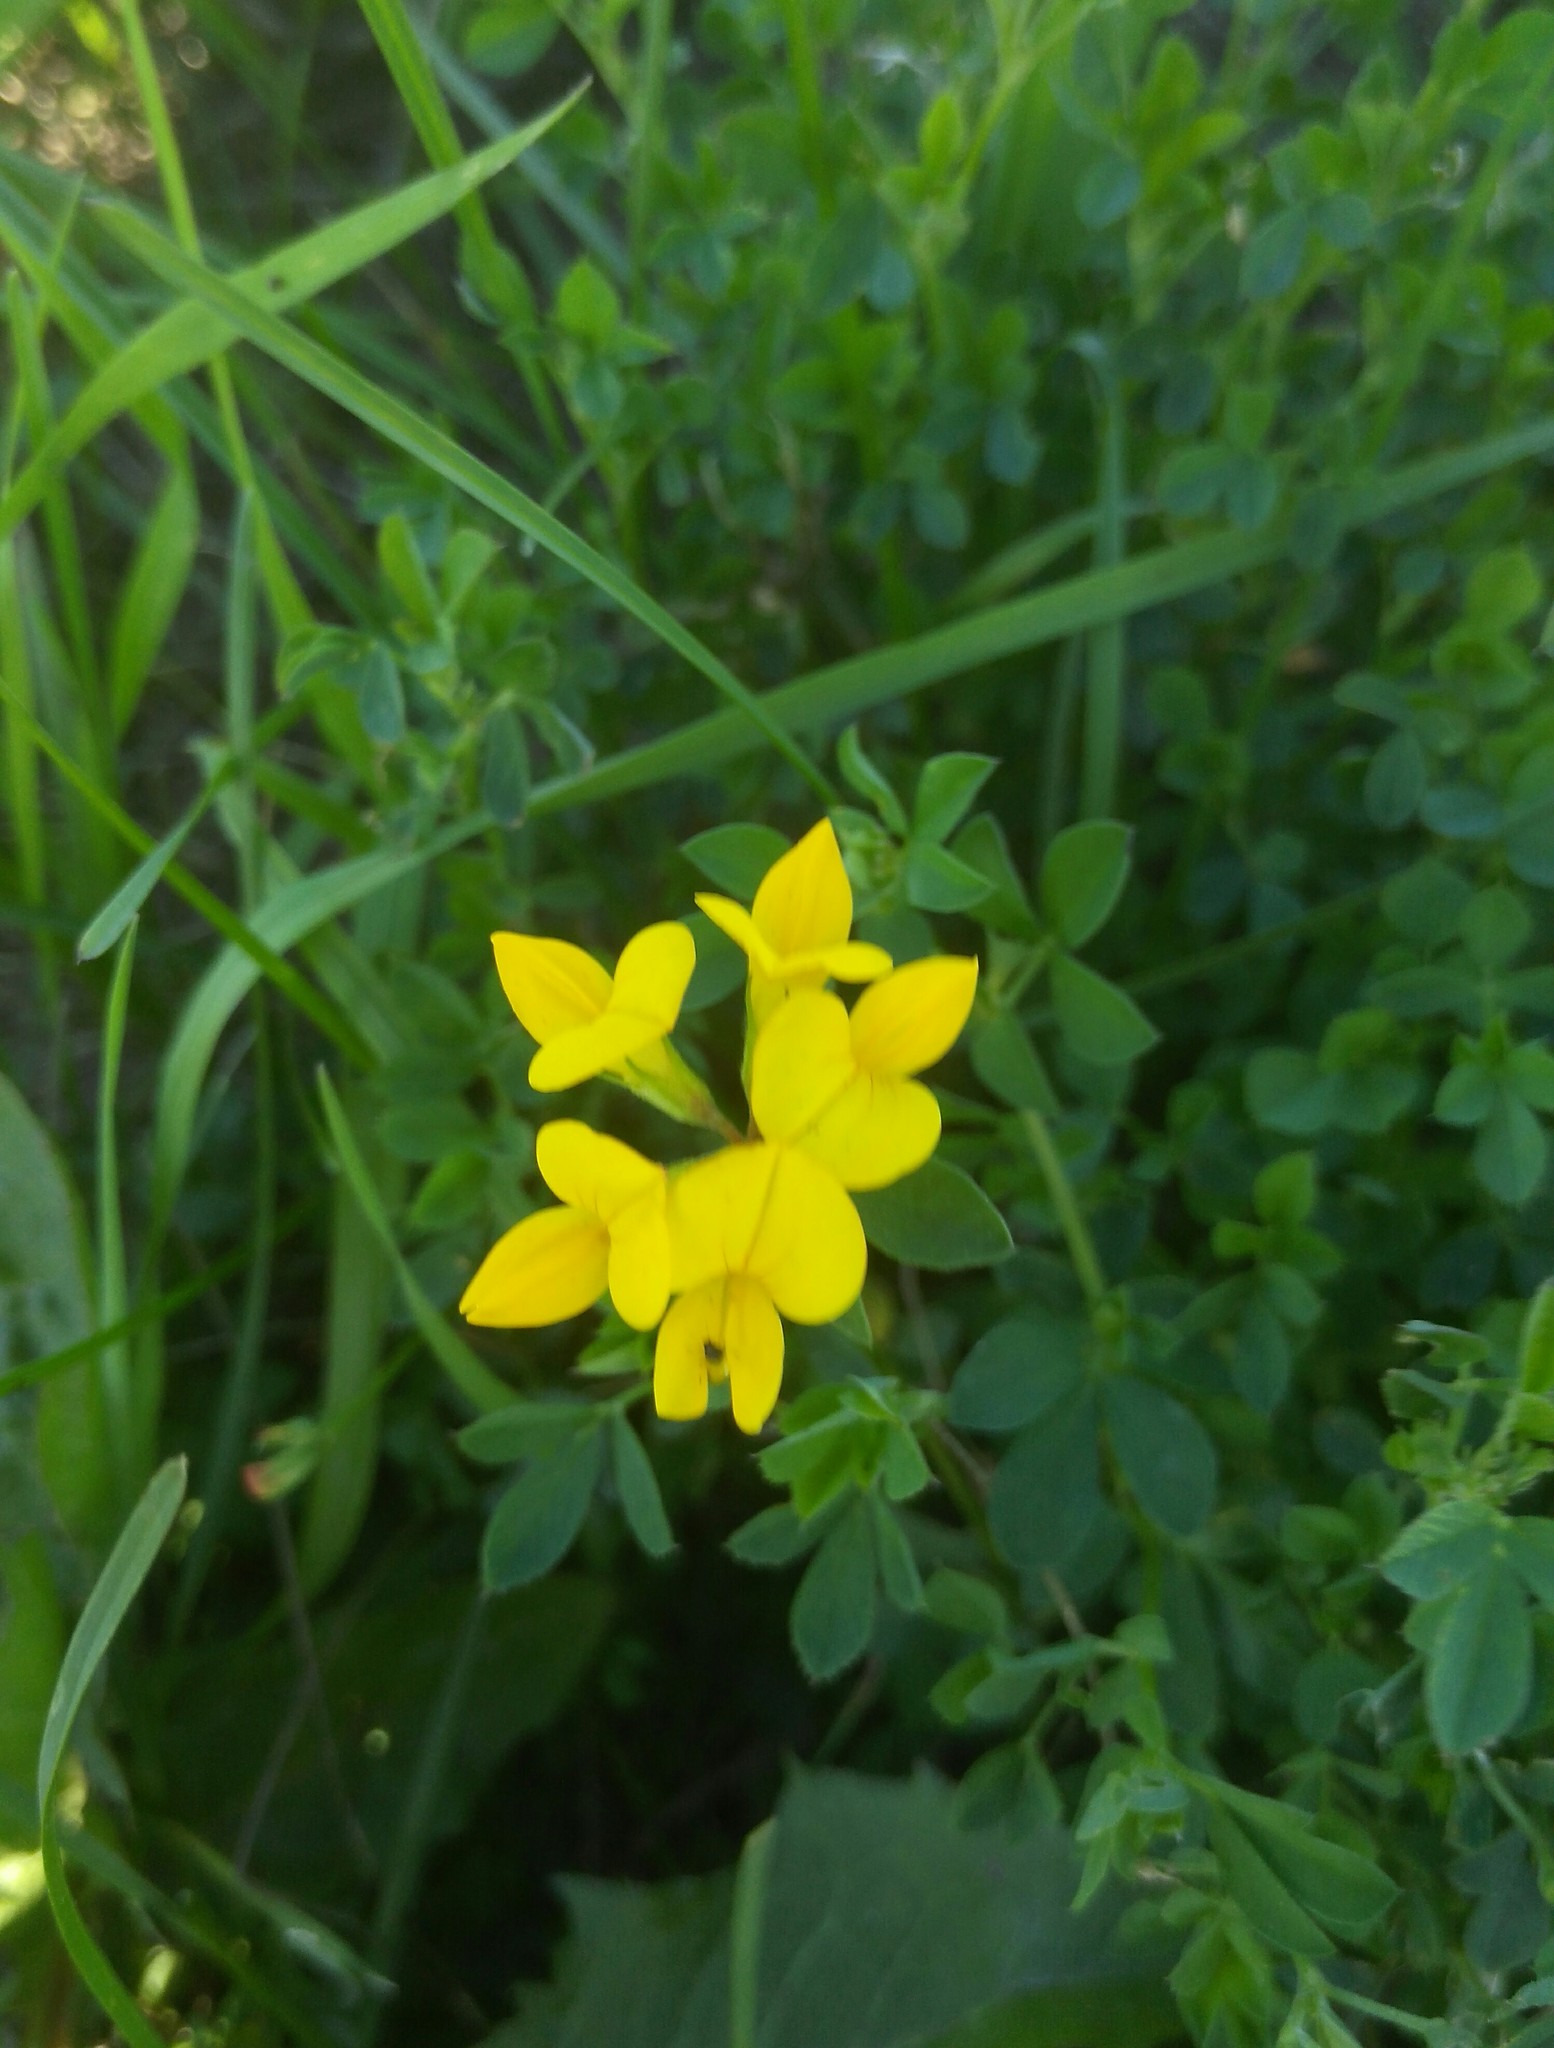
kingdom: Plantae
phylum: Tracheophyta
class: Magnoliopsida
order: Fabales
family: Fabaceae
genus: Lotus
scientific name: Lotus corniculatus
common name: Common bird's-foot-trefoil
